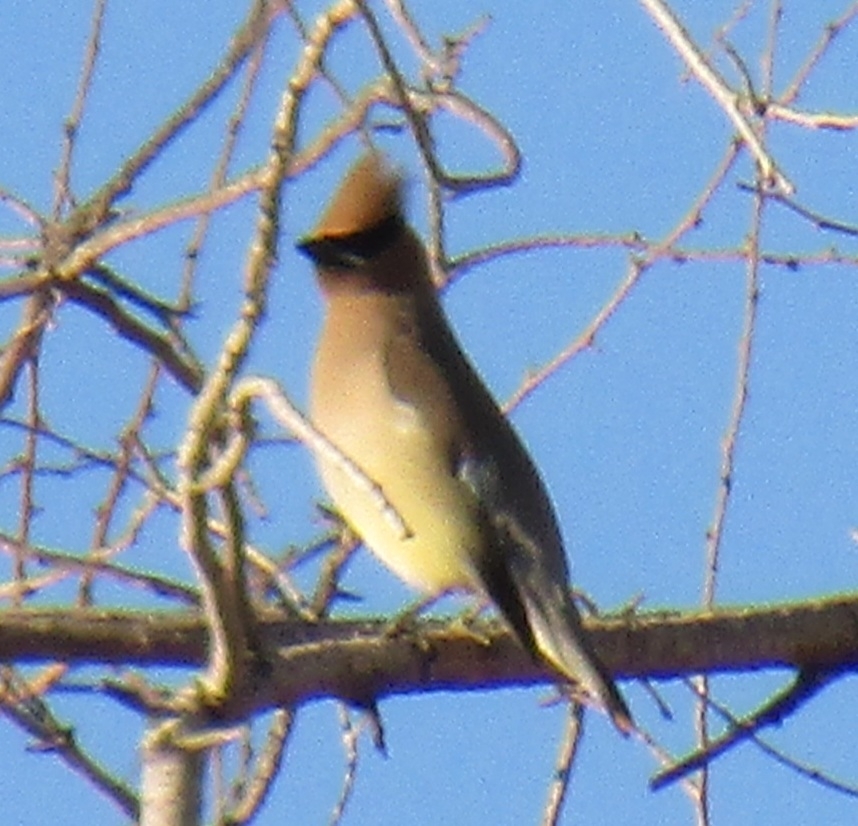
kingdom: Animalia
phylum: Chordata
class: Aves
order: Passeriformes
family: Bombycillidae
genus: Bombycilla
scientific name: Bombycilla cedrorum
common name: Cedar waxwing
